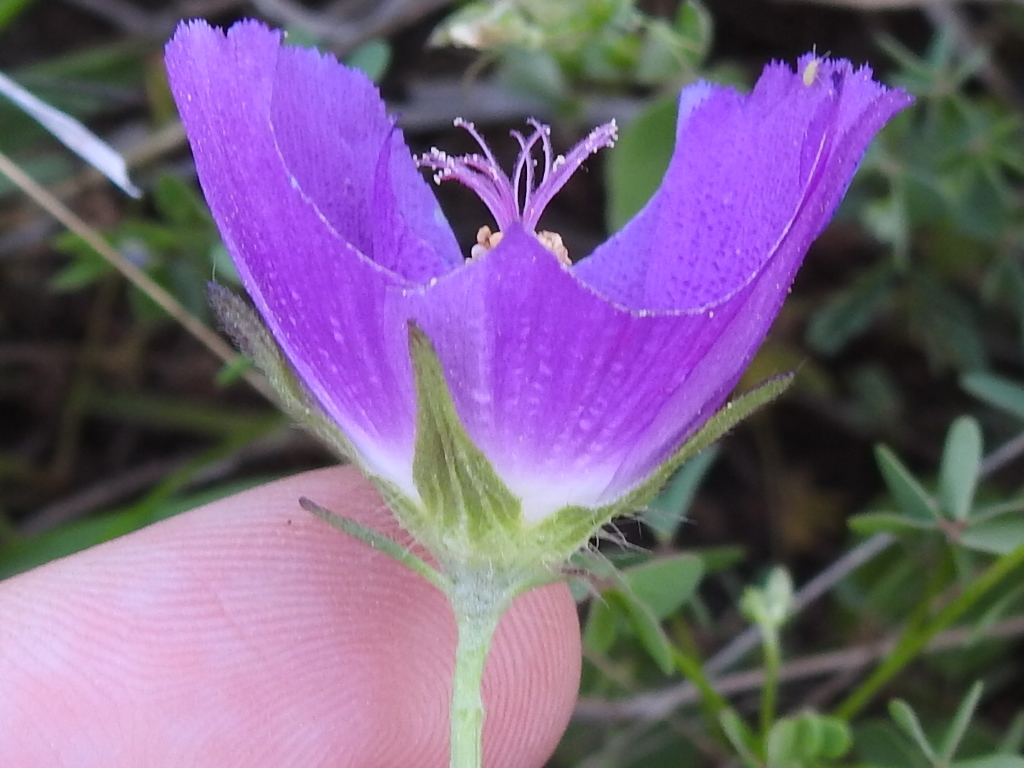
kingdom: Plantae
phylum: Tracheophyta
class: Magnoliopsida
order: Malvales
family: Malvaceae
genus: Callirhoe
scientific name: Callirhoe involucrata
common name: Purple poppy-mallow
